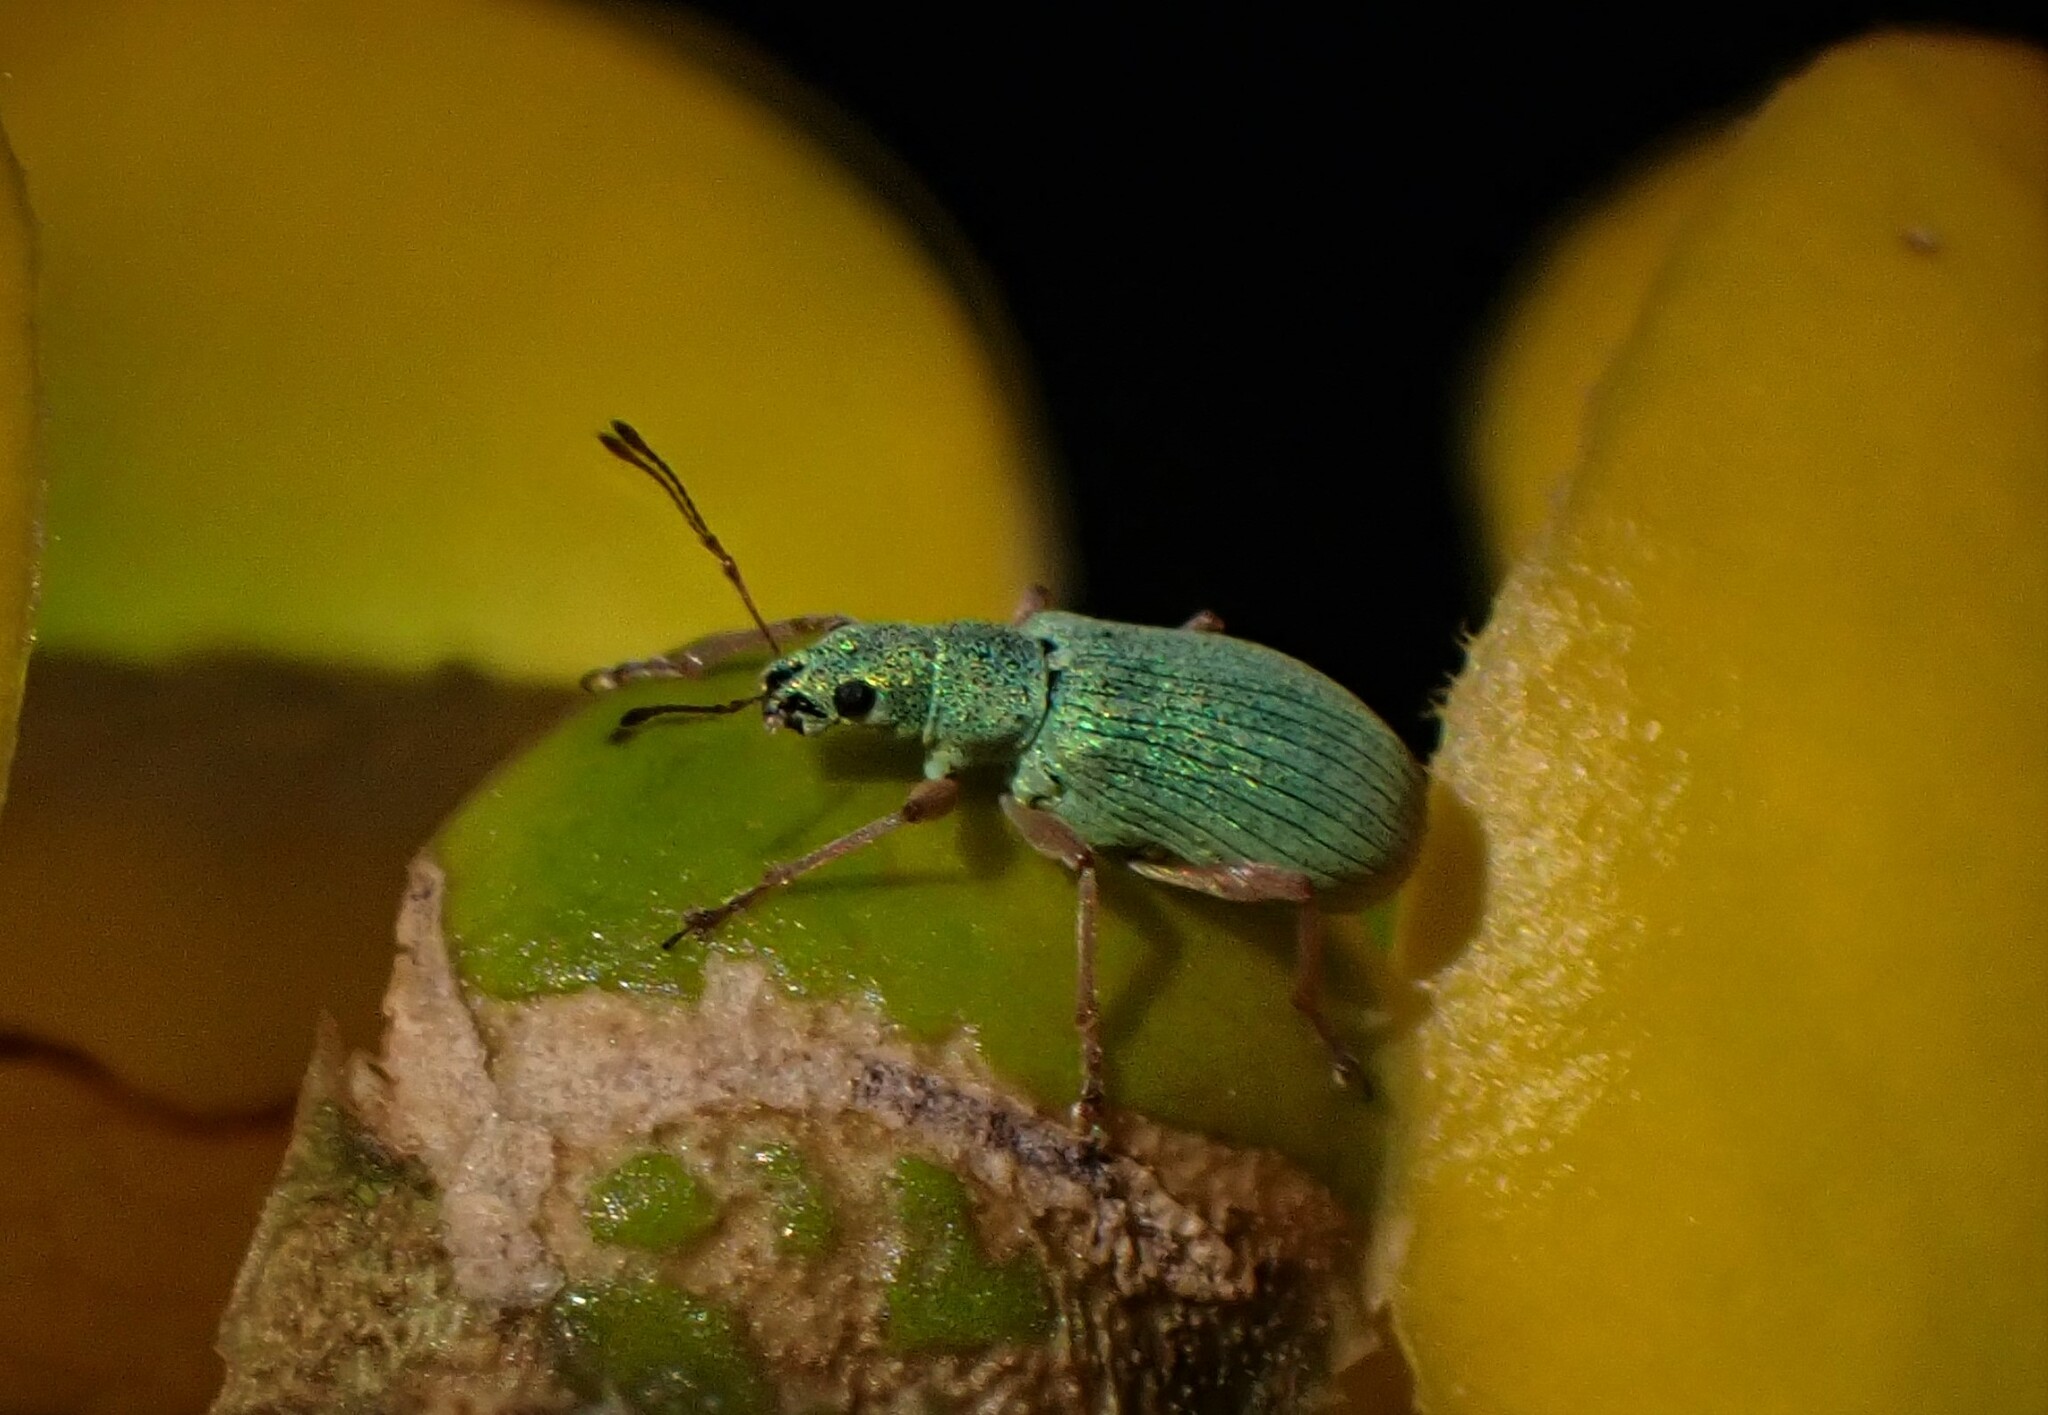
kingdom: Animalia
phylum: Arthropoda
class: Insecta
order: Coleoptera
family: Curculionidae
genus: Polydrusus
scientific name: Polydrusus impressifrons
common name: Weevil
